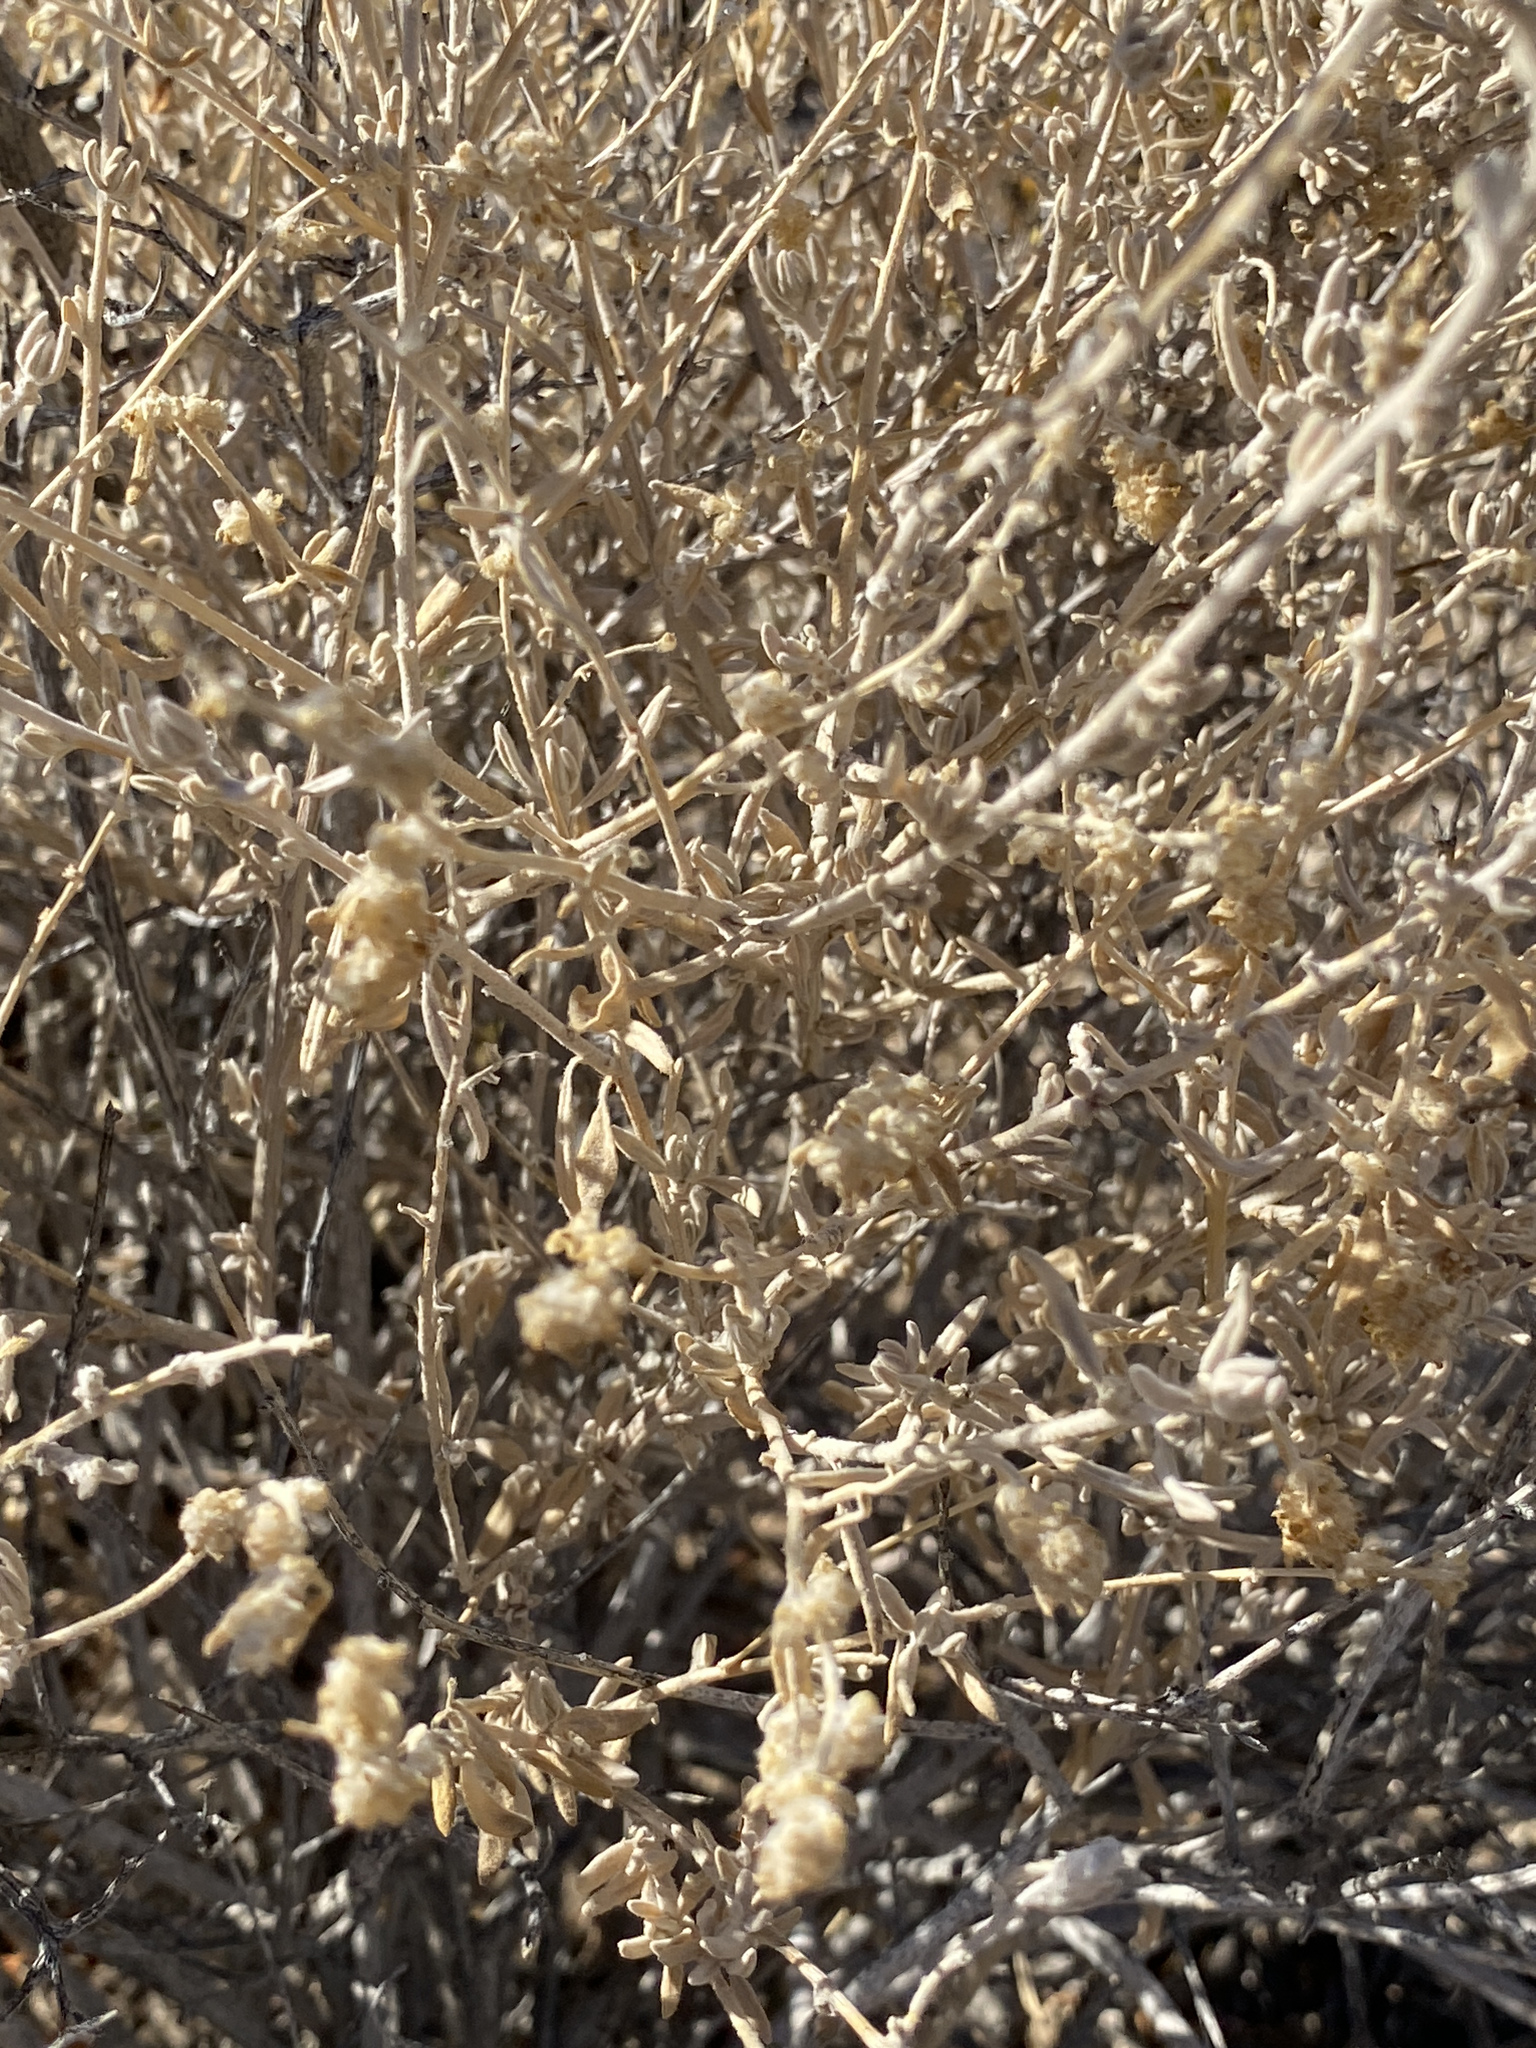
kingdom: Plantae
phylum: Tracheophyta
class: Magnoliopsida
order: Caryophyllales
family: Amaranthaceae
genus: Krascheninnikovia
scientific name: Krascheninnikovia lanata
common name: Winterfat
